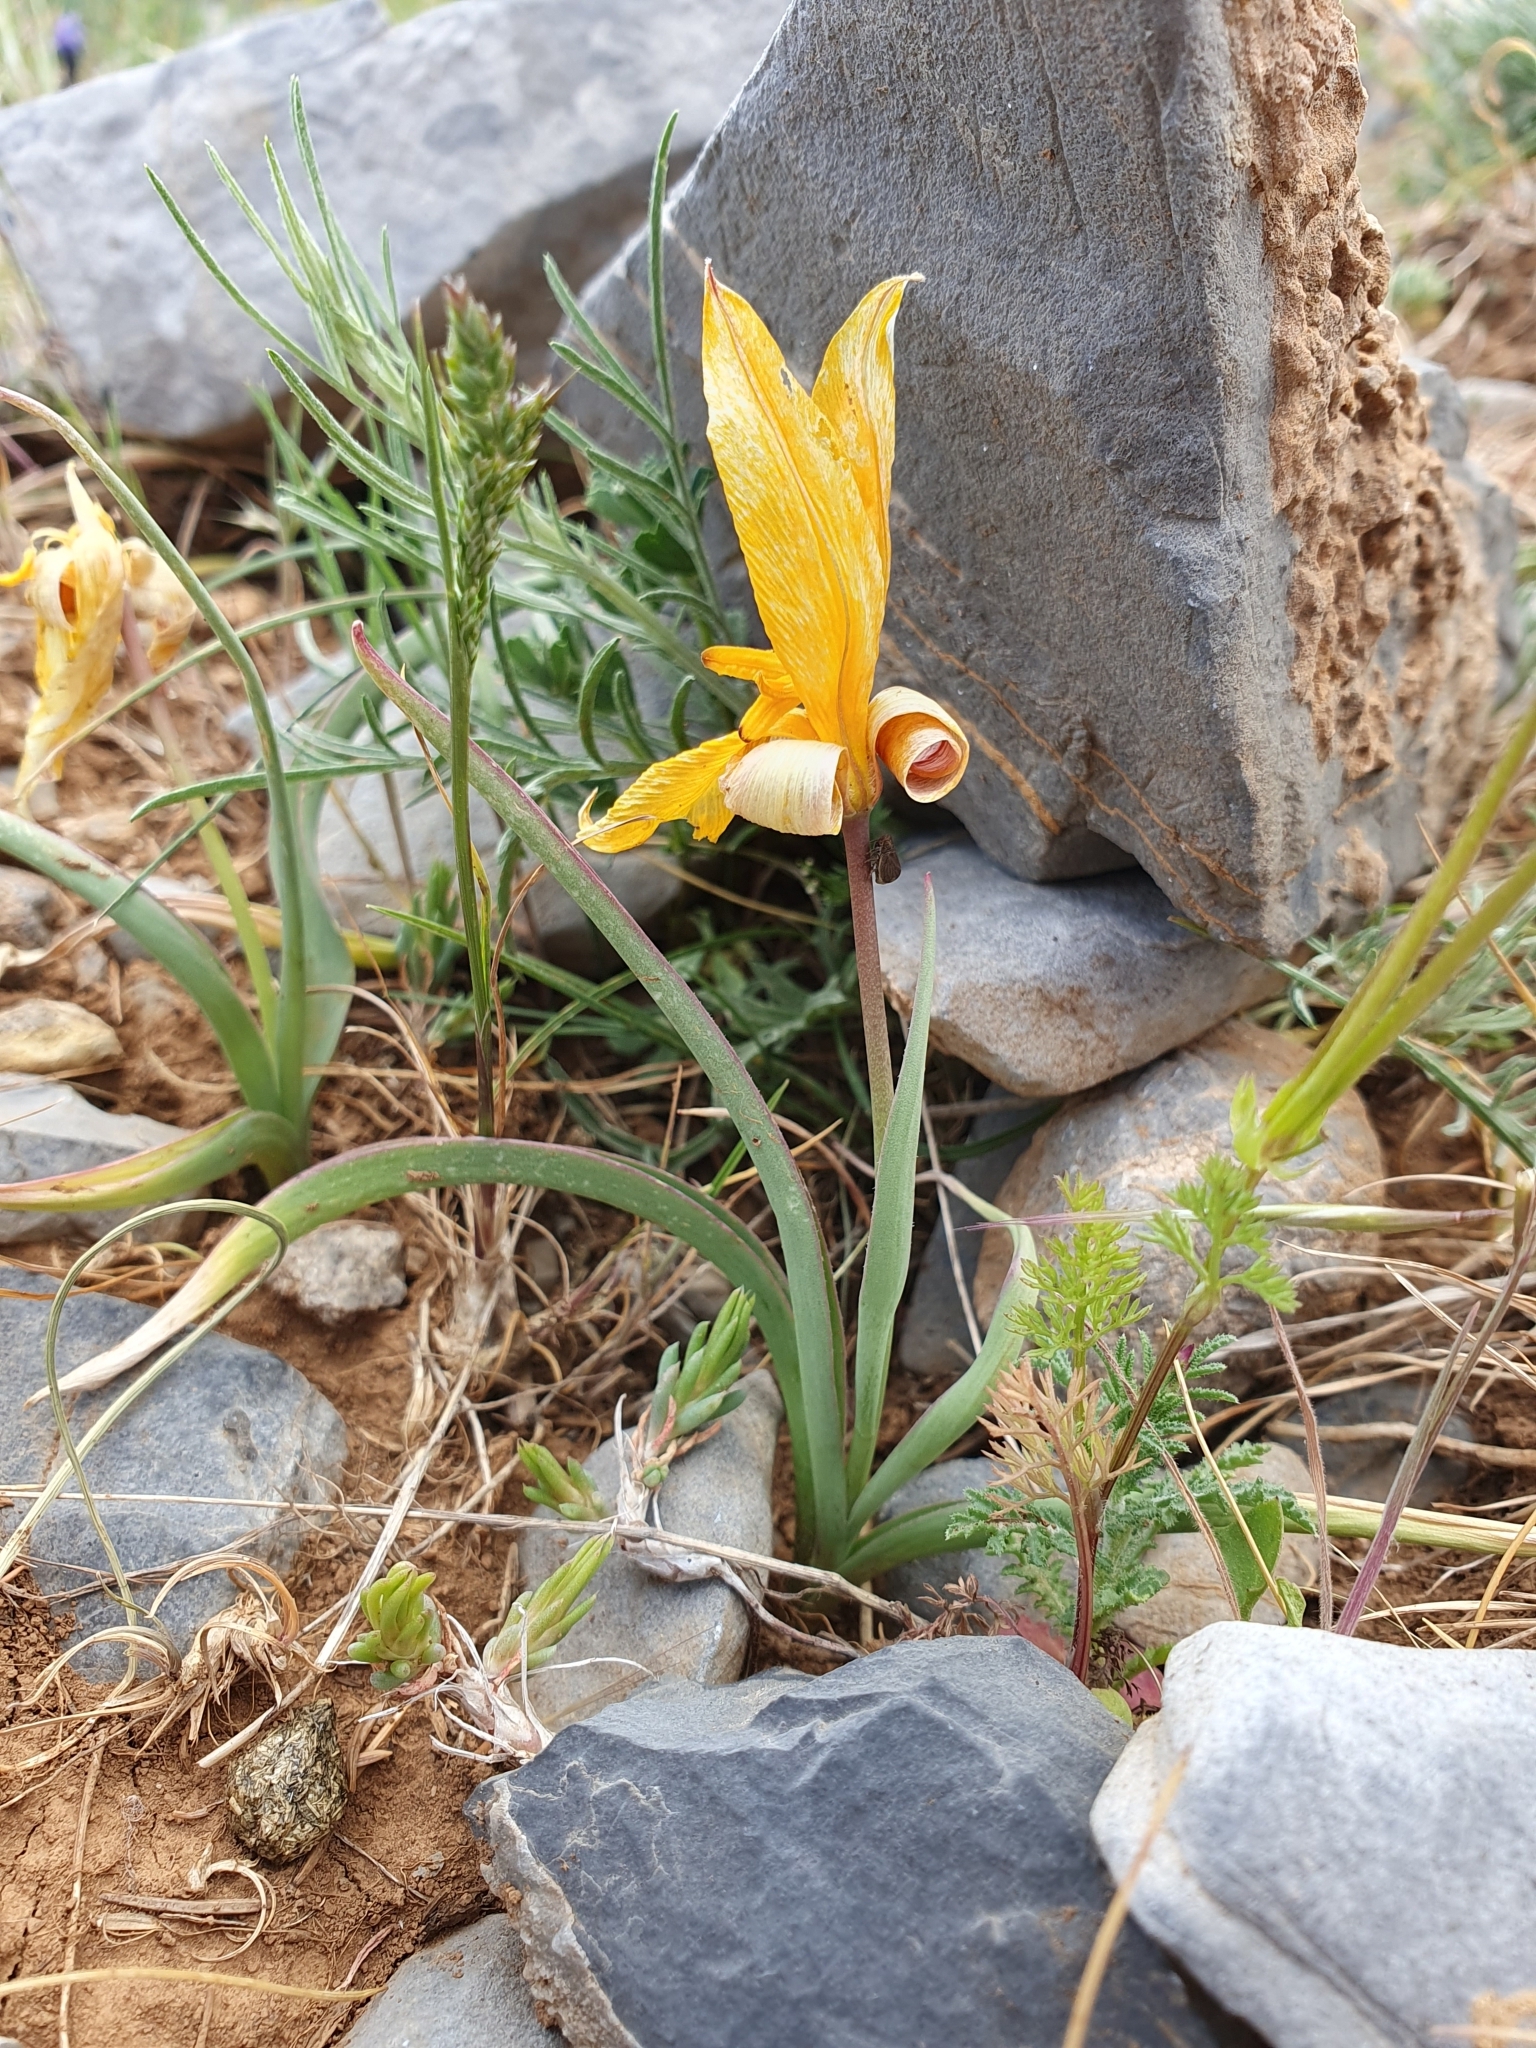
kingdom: Plantae
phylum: Tracheophyta
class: Liliopsida
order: Liliales
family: Liliaceae
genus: Tulipa
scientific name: Tulipa sylvestris
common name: Wild tulip
